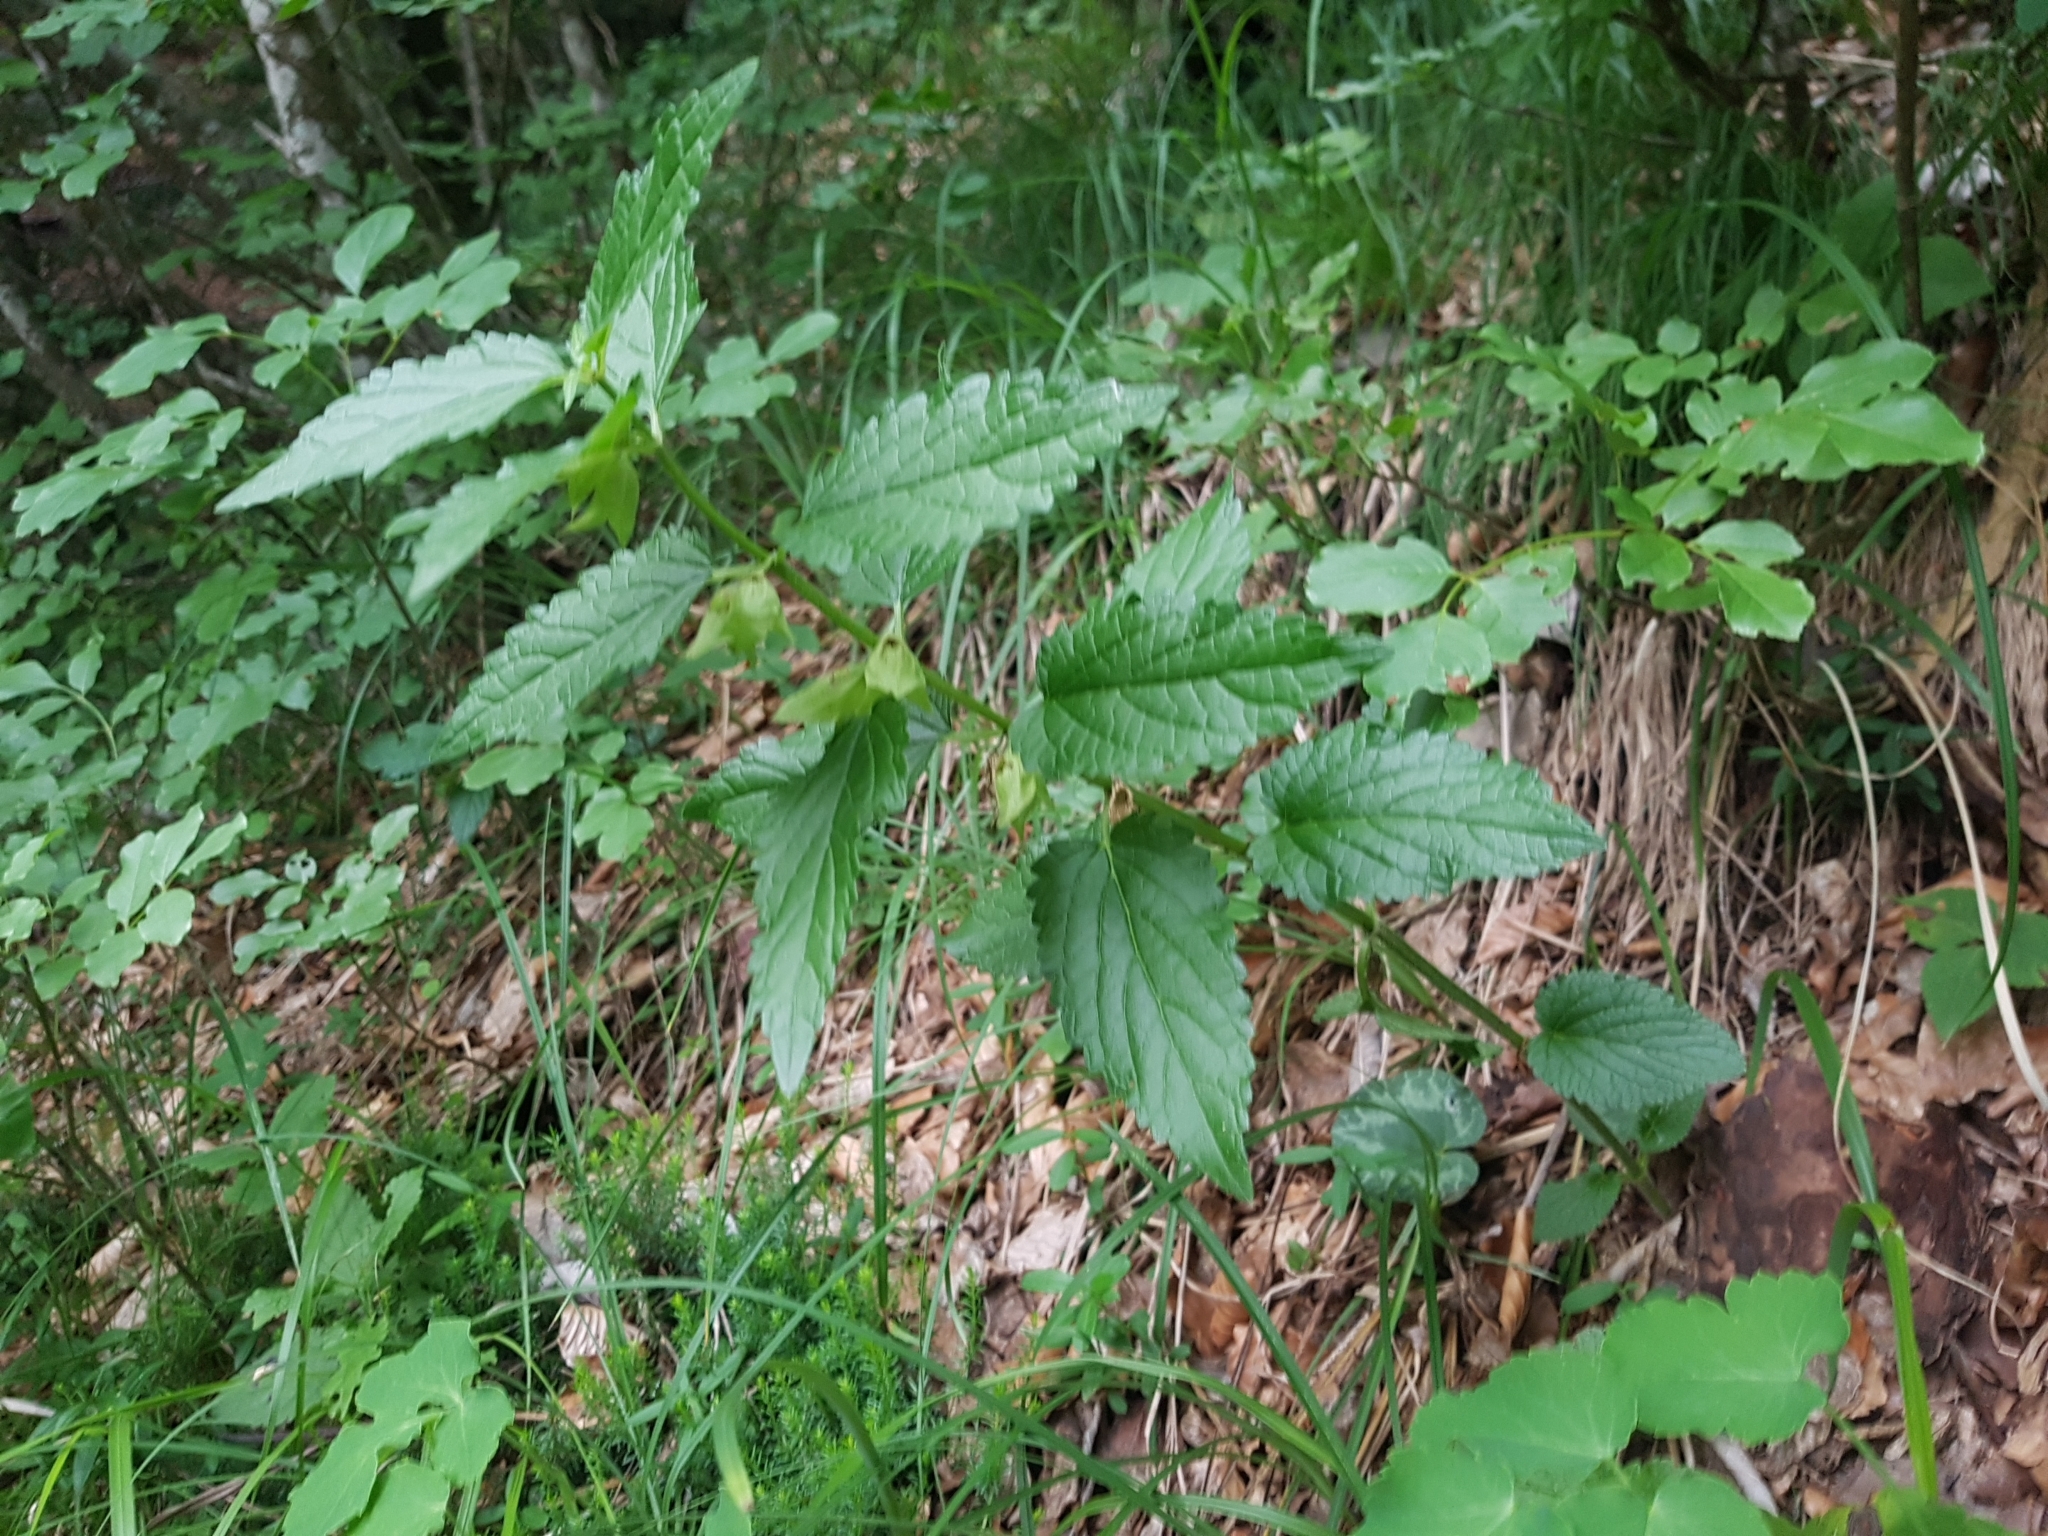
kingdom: Plantae
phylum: Tracheophyta
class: Magnoliopsida
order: Lamiales
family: Lamiaceae
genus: Melittis
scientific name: Melittis melissophyllum
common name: Bastard balm
